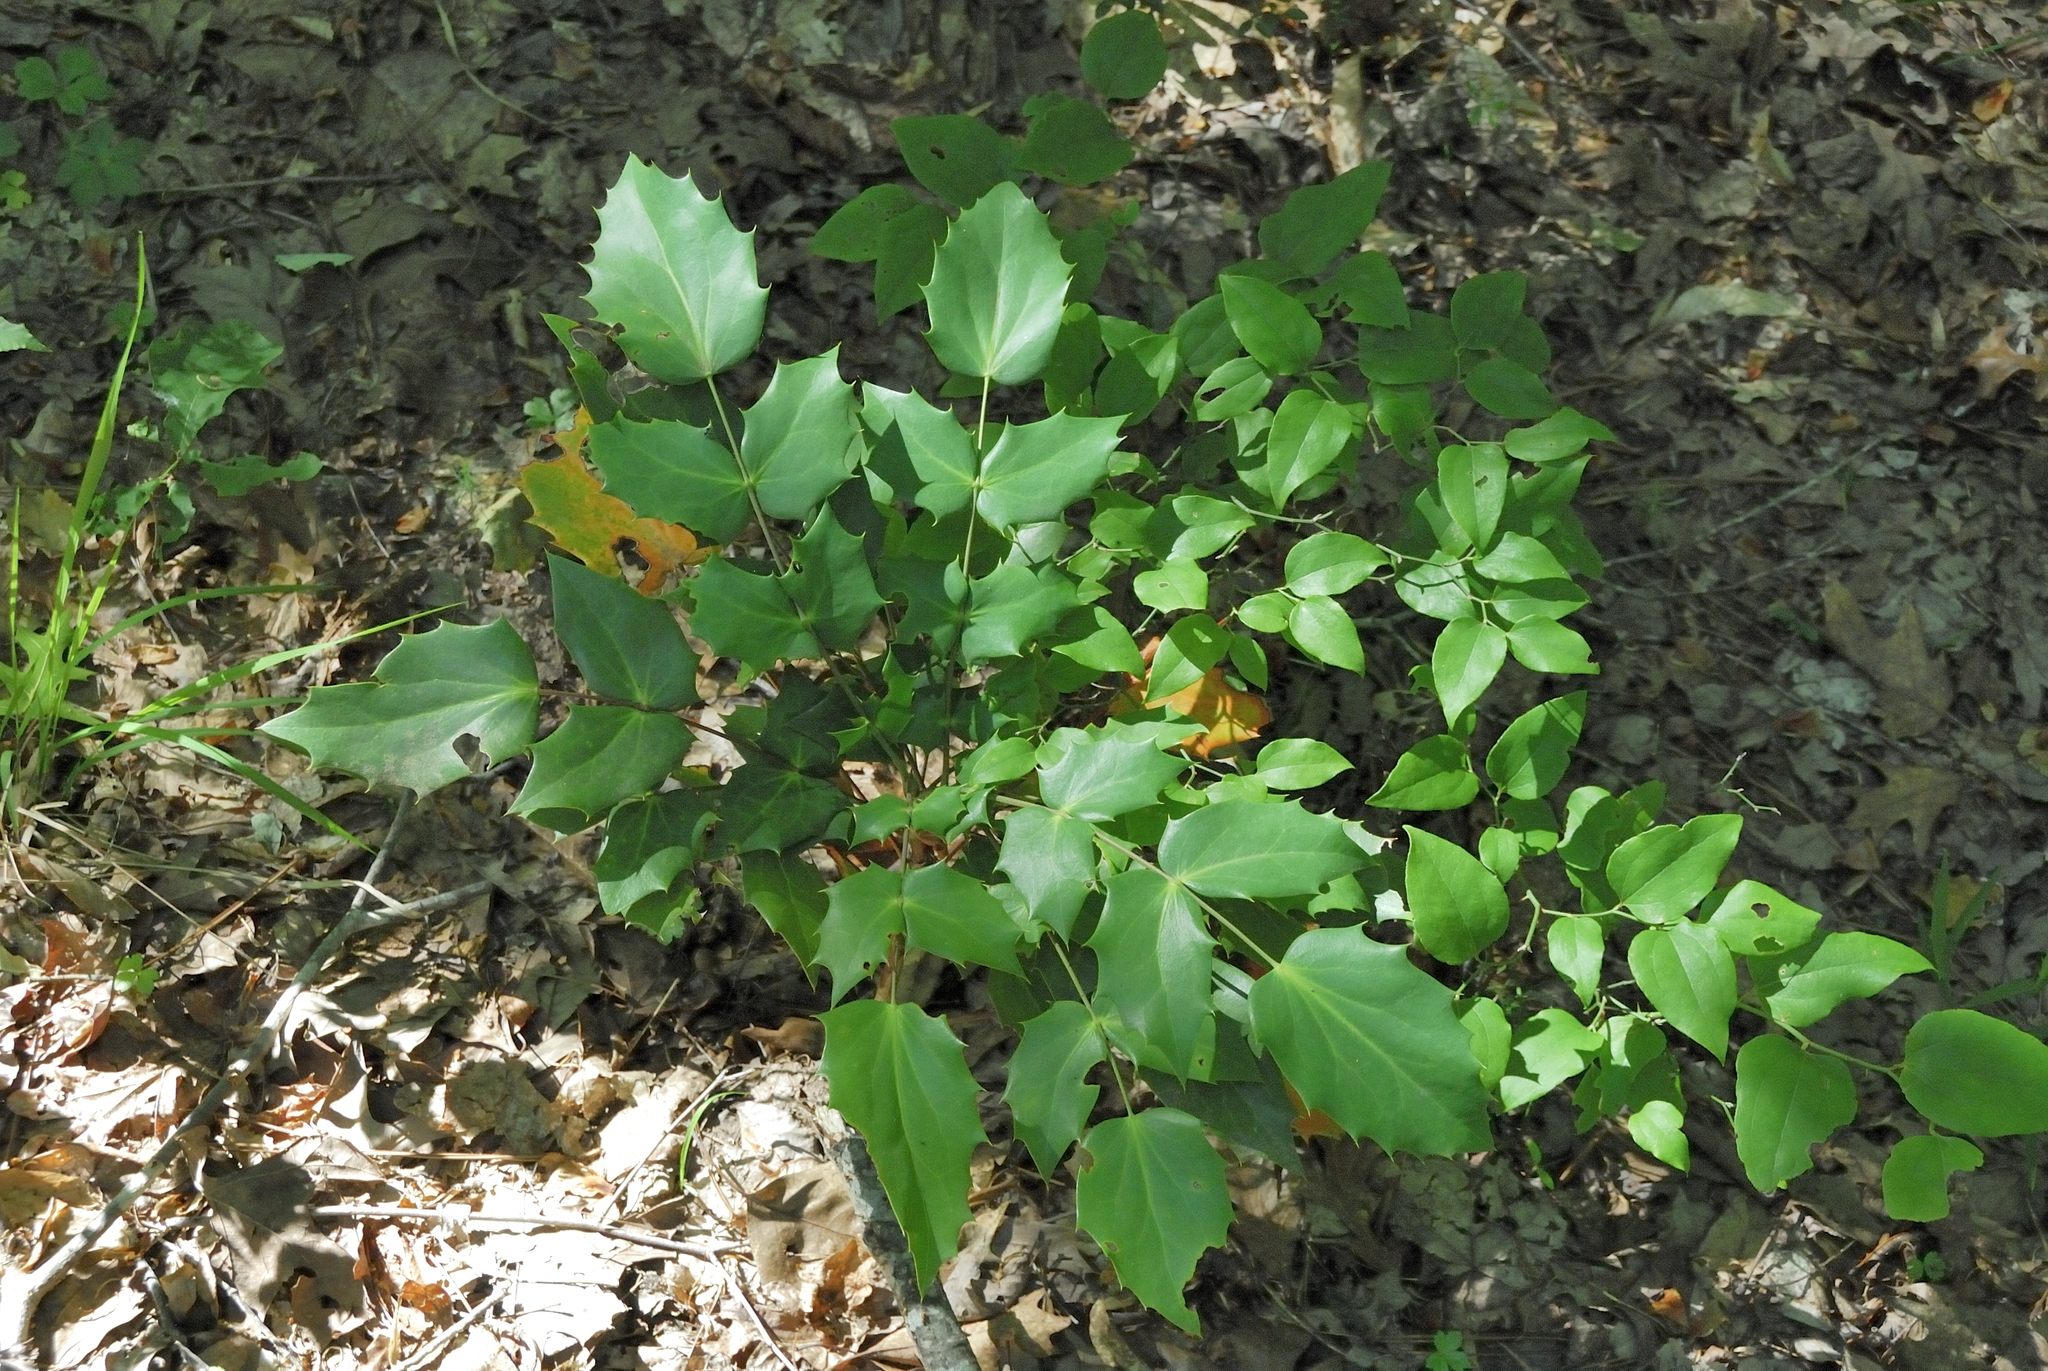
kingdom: Plantae
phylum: Tracheophyta
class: Magnoliopsida
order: Ranunculales
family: Berberidaceae
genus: Mahonia
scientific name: Mahonia bealei
